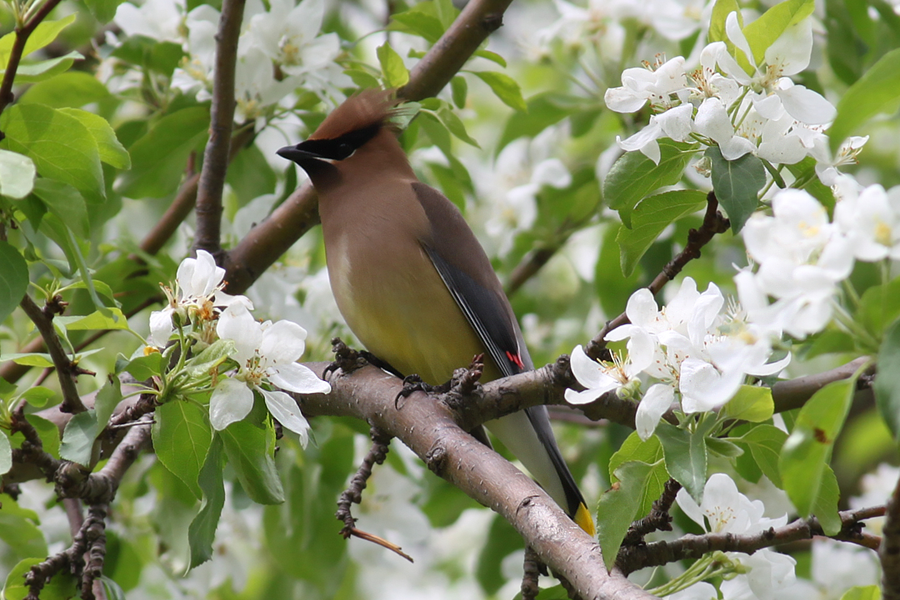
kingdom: Animalia
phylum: Chordata
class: Aves
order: Passeriformes
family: Bombycillidae
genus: Bombycilla
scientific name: Bombycilla cedrorum
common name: Cedar waxwing
